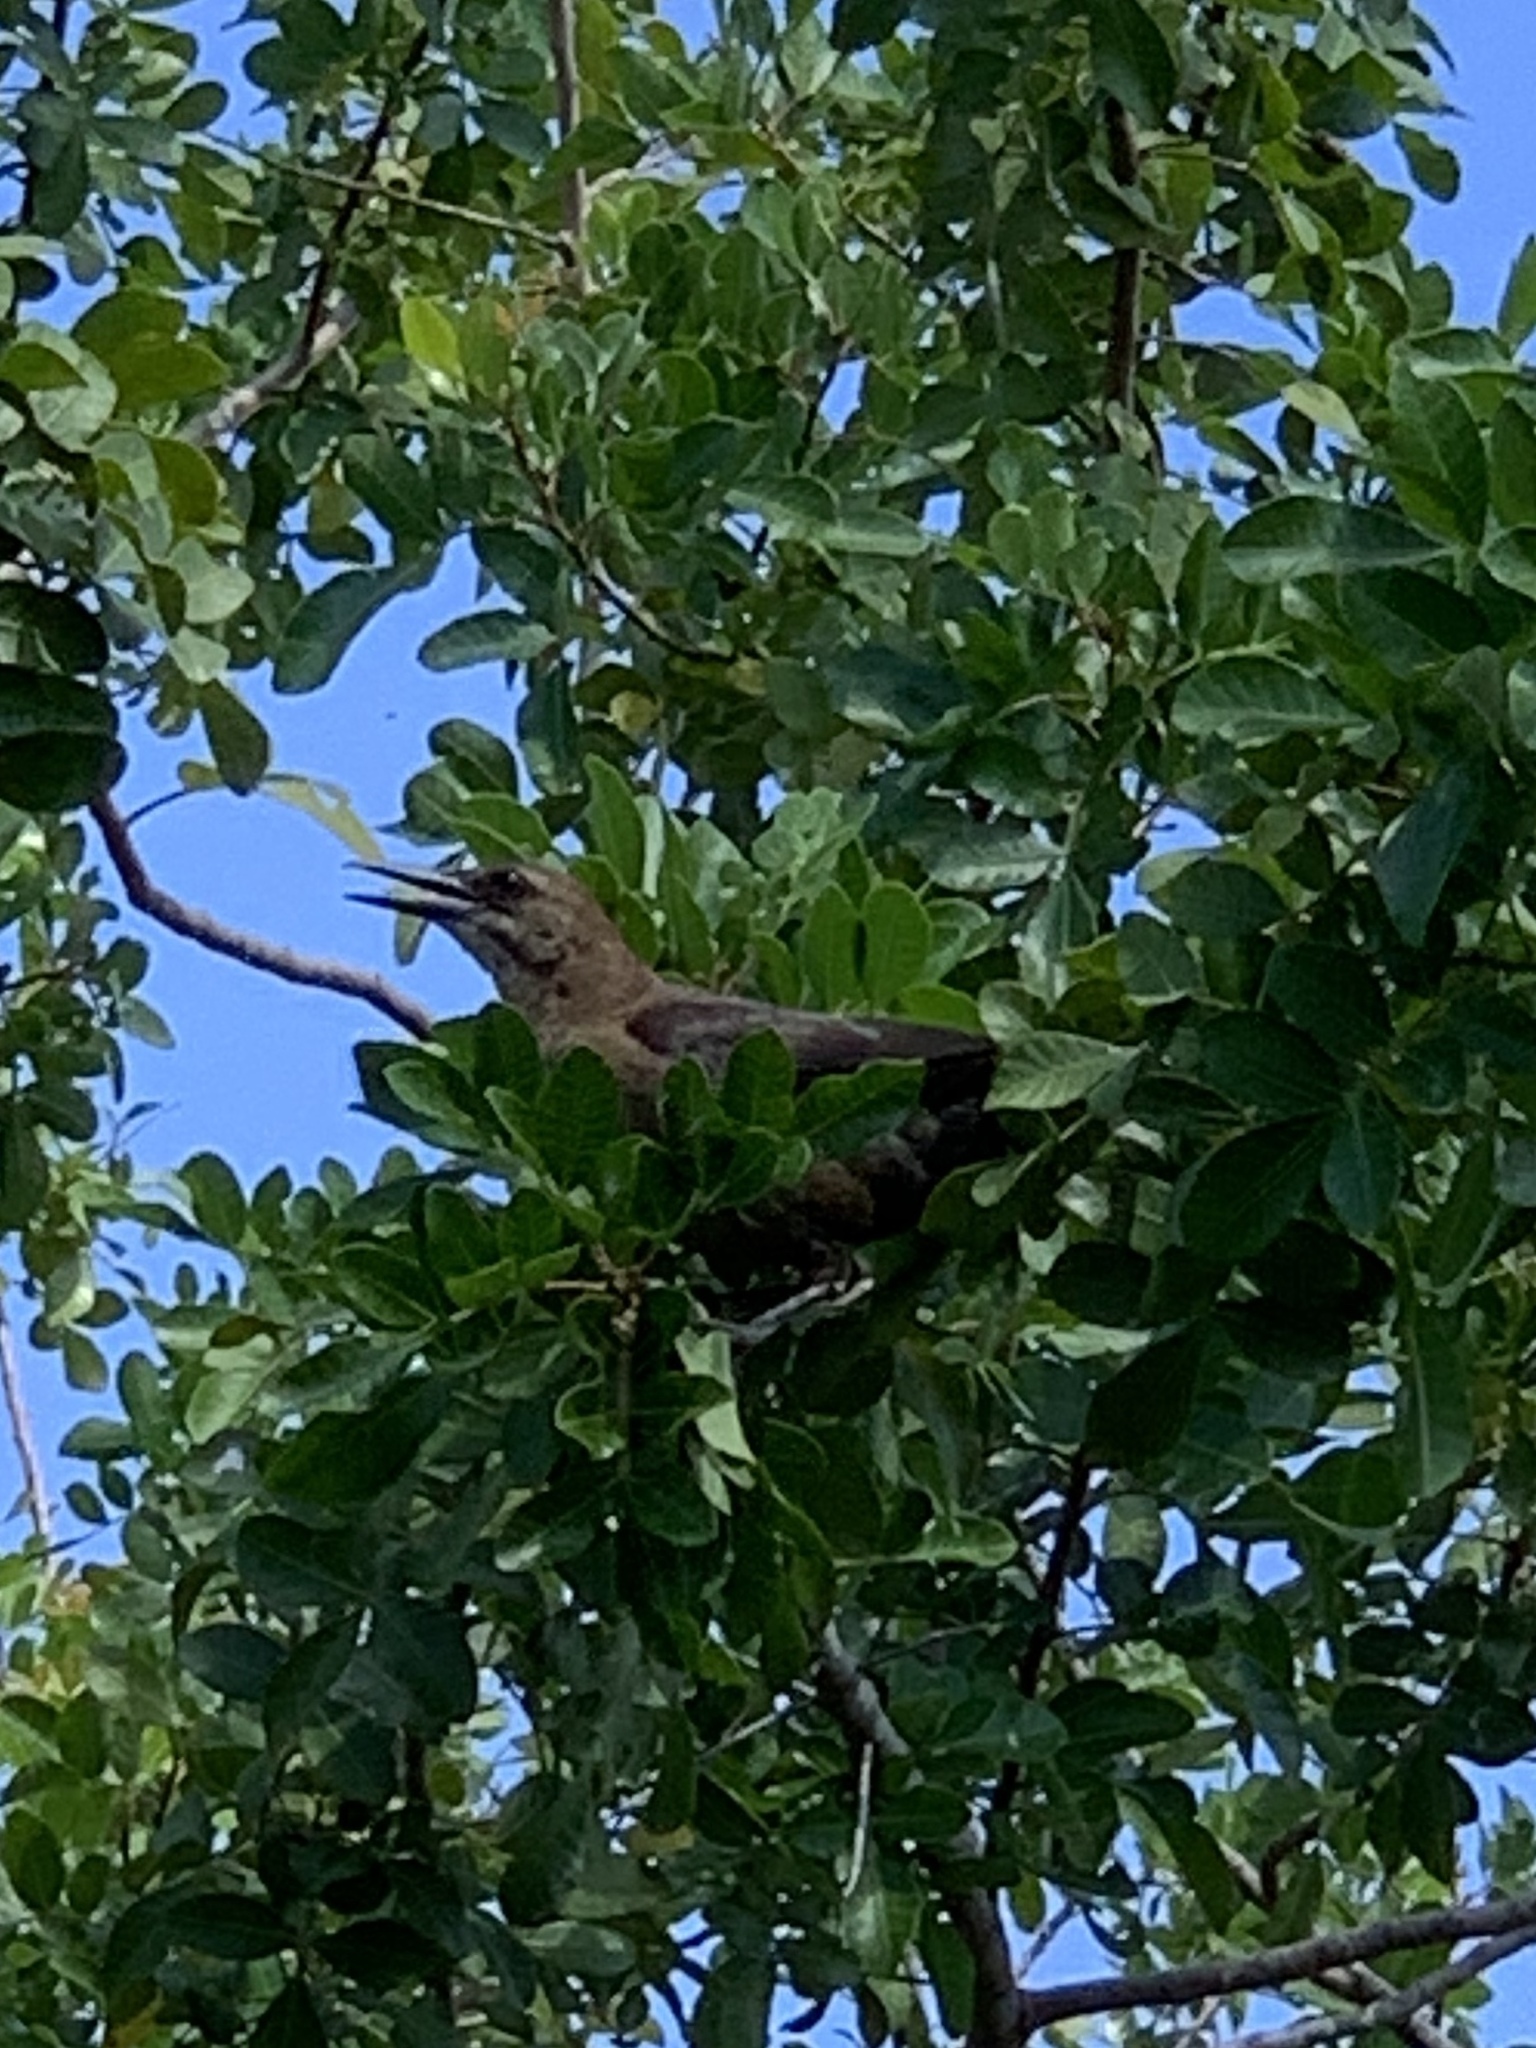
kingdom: Animalia
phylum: Chordata
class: Aves
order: Passeriformes
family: Icteridae
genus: Quiscalus
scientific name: Quiscalus major
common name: Boat-tailed grackle
